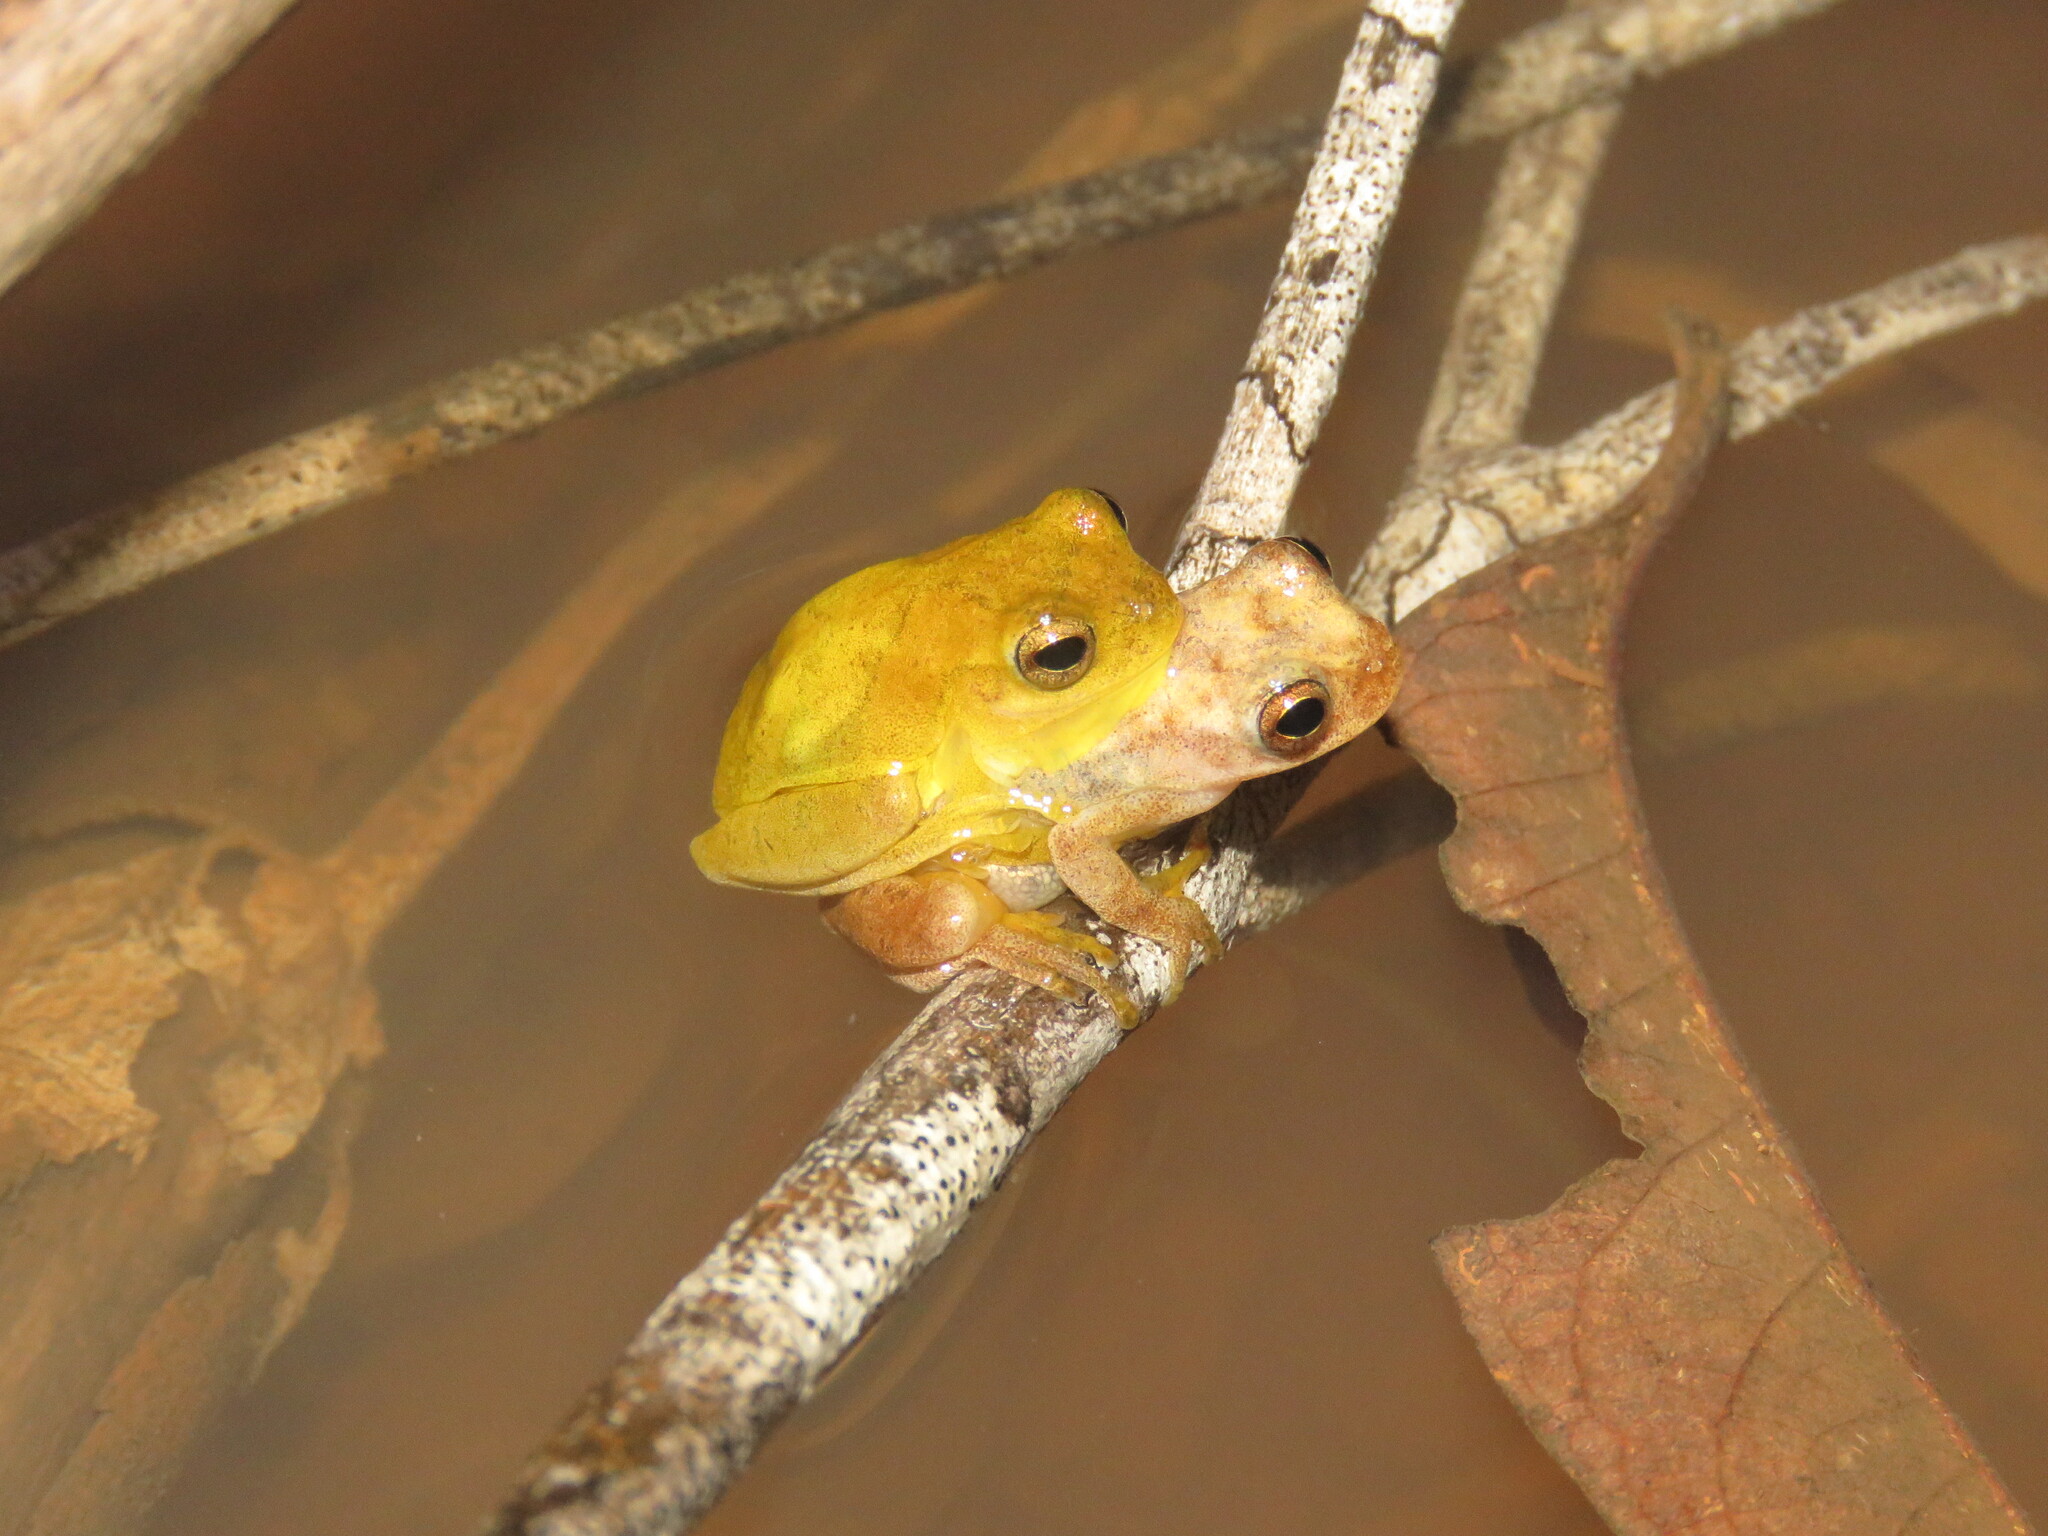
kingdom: Animalia
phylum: Chordata
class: Amphibia
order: Anura
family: Hylidae
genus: Dendropsophus
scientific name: Dendropsophus minutus
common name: Lesser treefrog
